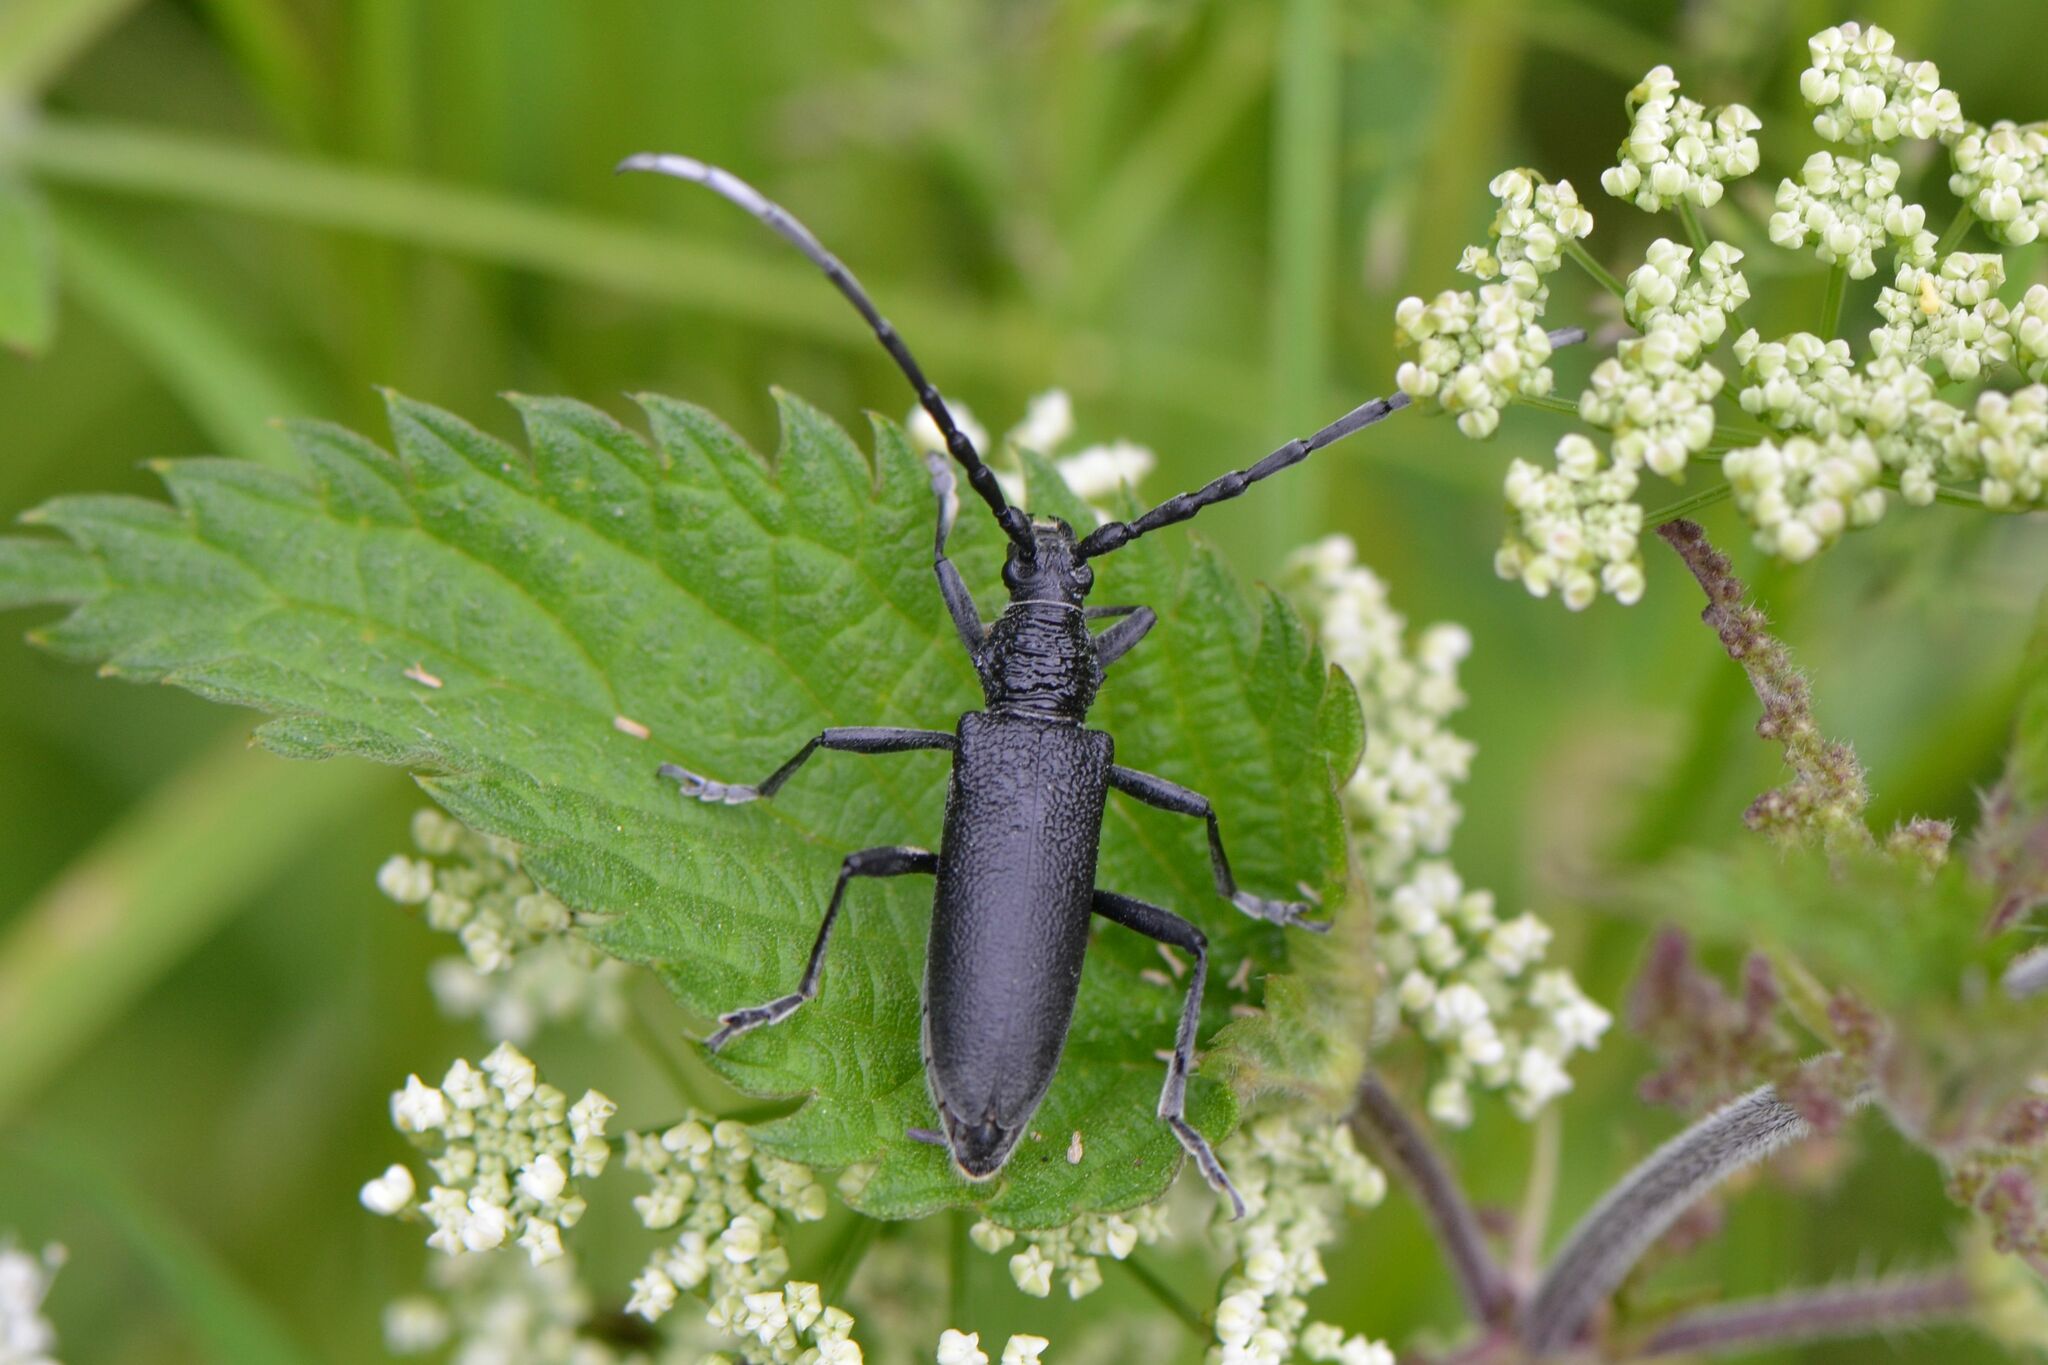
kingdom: Animalia
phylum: Arthropoda
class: Insecta
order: Coleoptera
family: Cerambycidae
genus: Cerambyx
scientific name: Cerambyx scopolii
